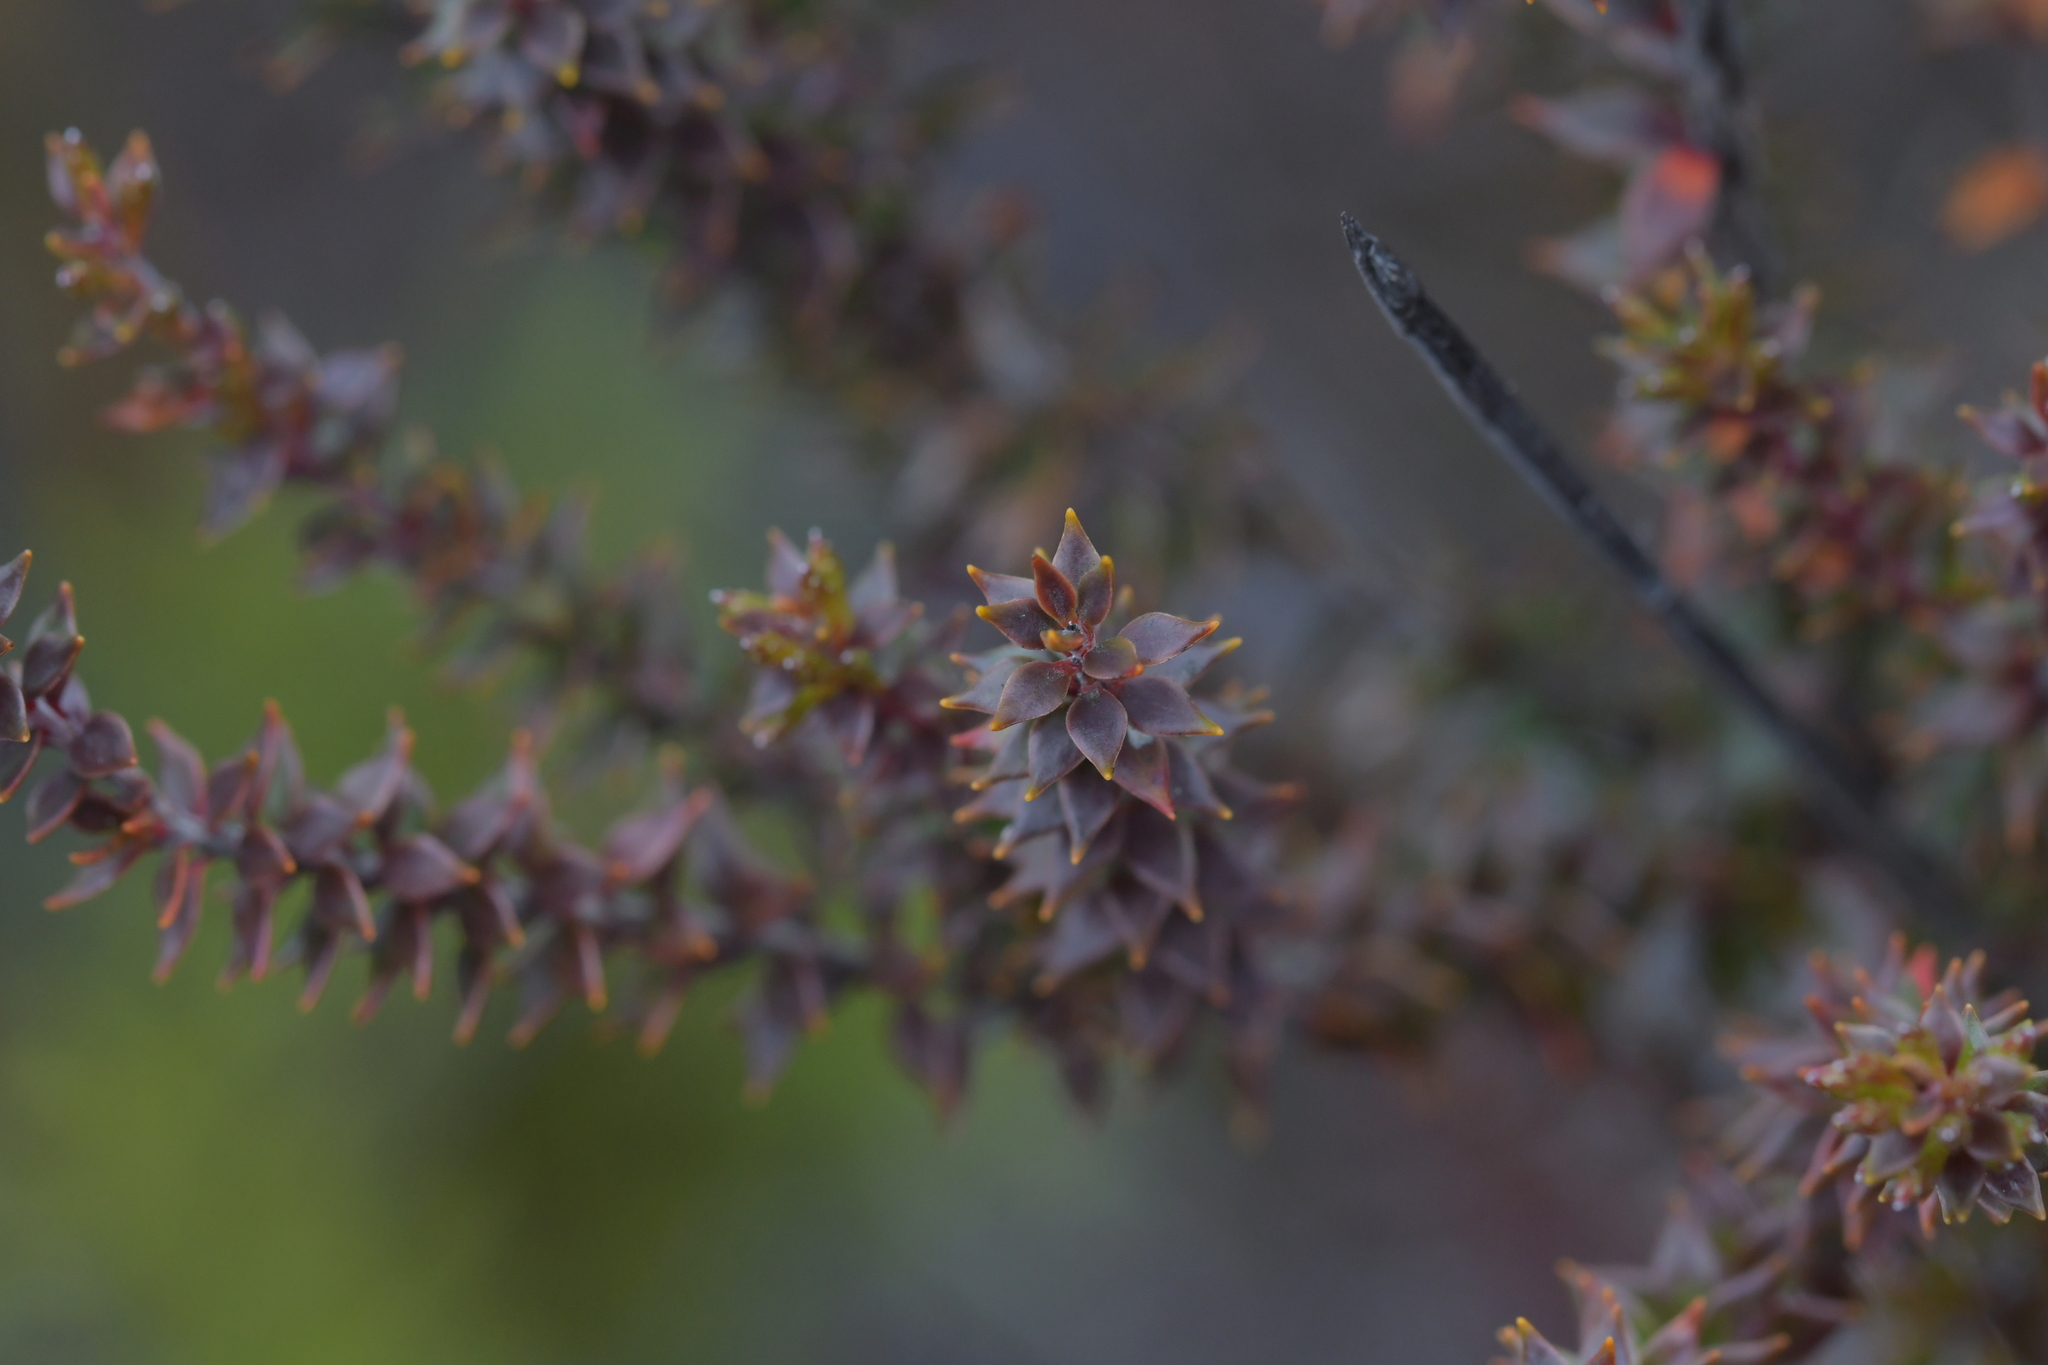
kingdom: Plantae
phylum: Tracheophyta
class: Magnoliopsida
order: Ericales
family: Ericaceae
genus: Epacris
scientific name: Epacris pauciflora
